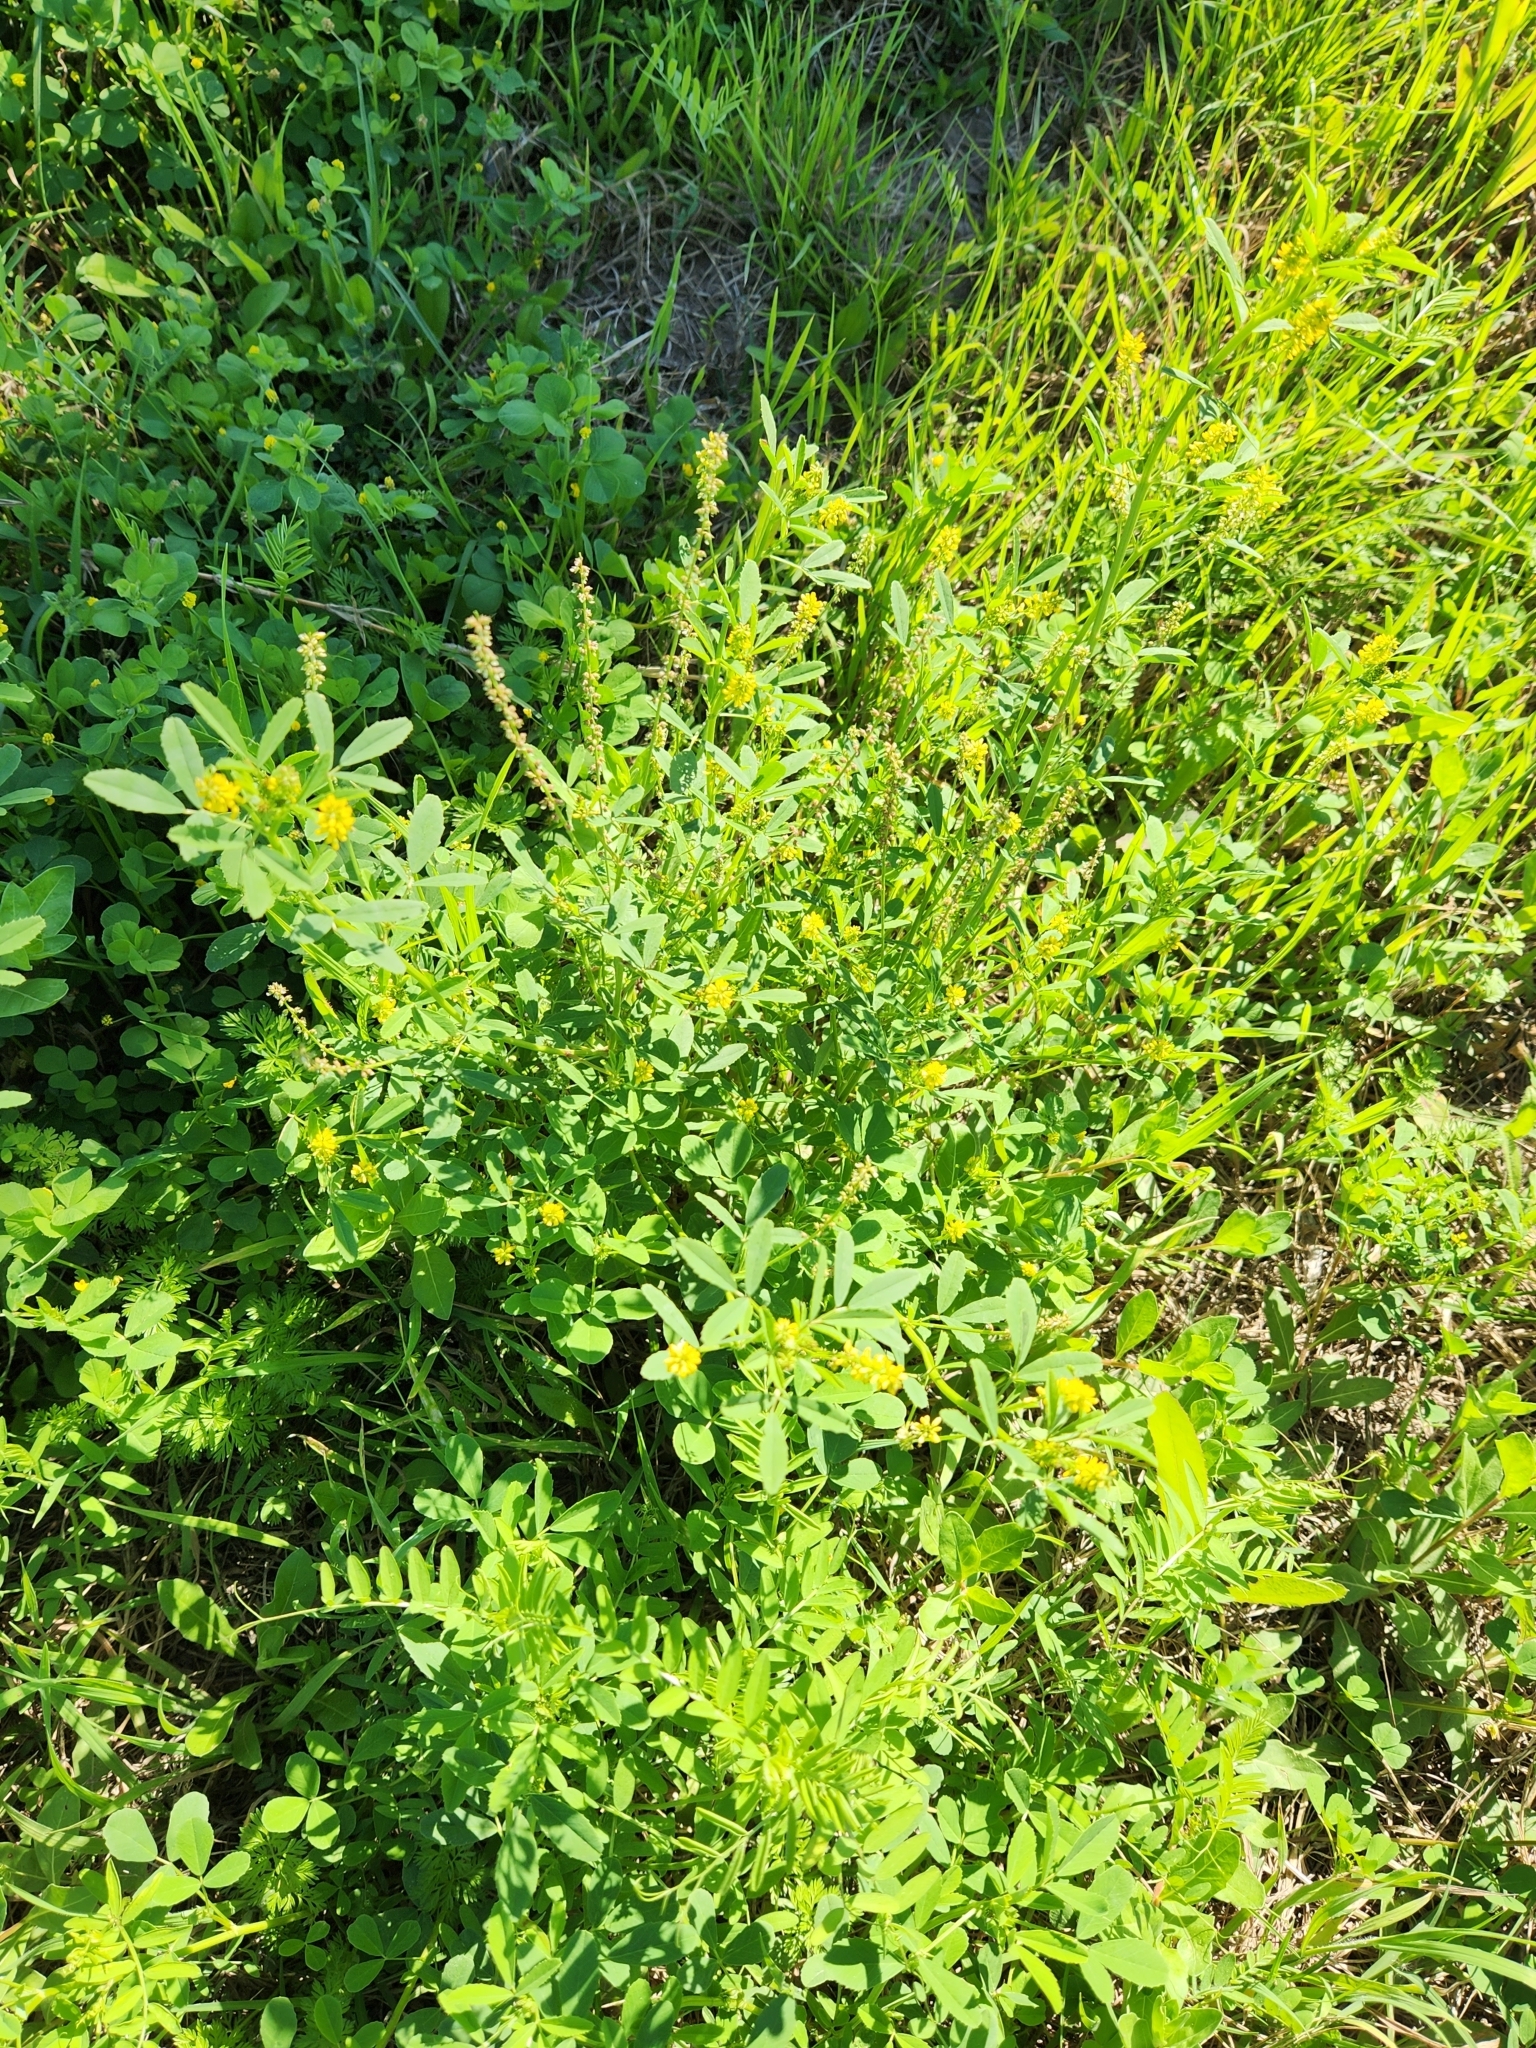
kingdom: Plantae
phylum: Tracheophyta
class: Magnoliopsida
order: Fabales
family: Fabaceae
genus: Melilotus
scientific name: Melilotus indicus
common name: Small melilot
